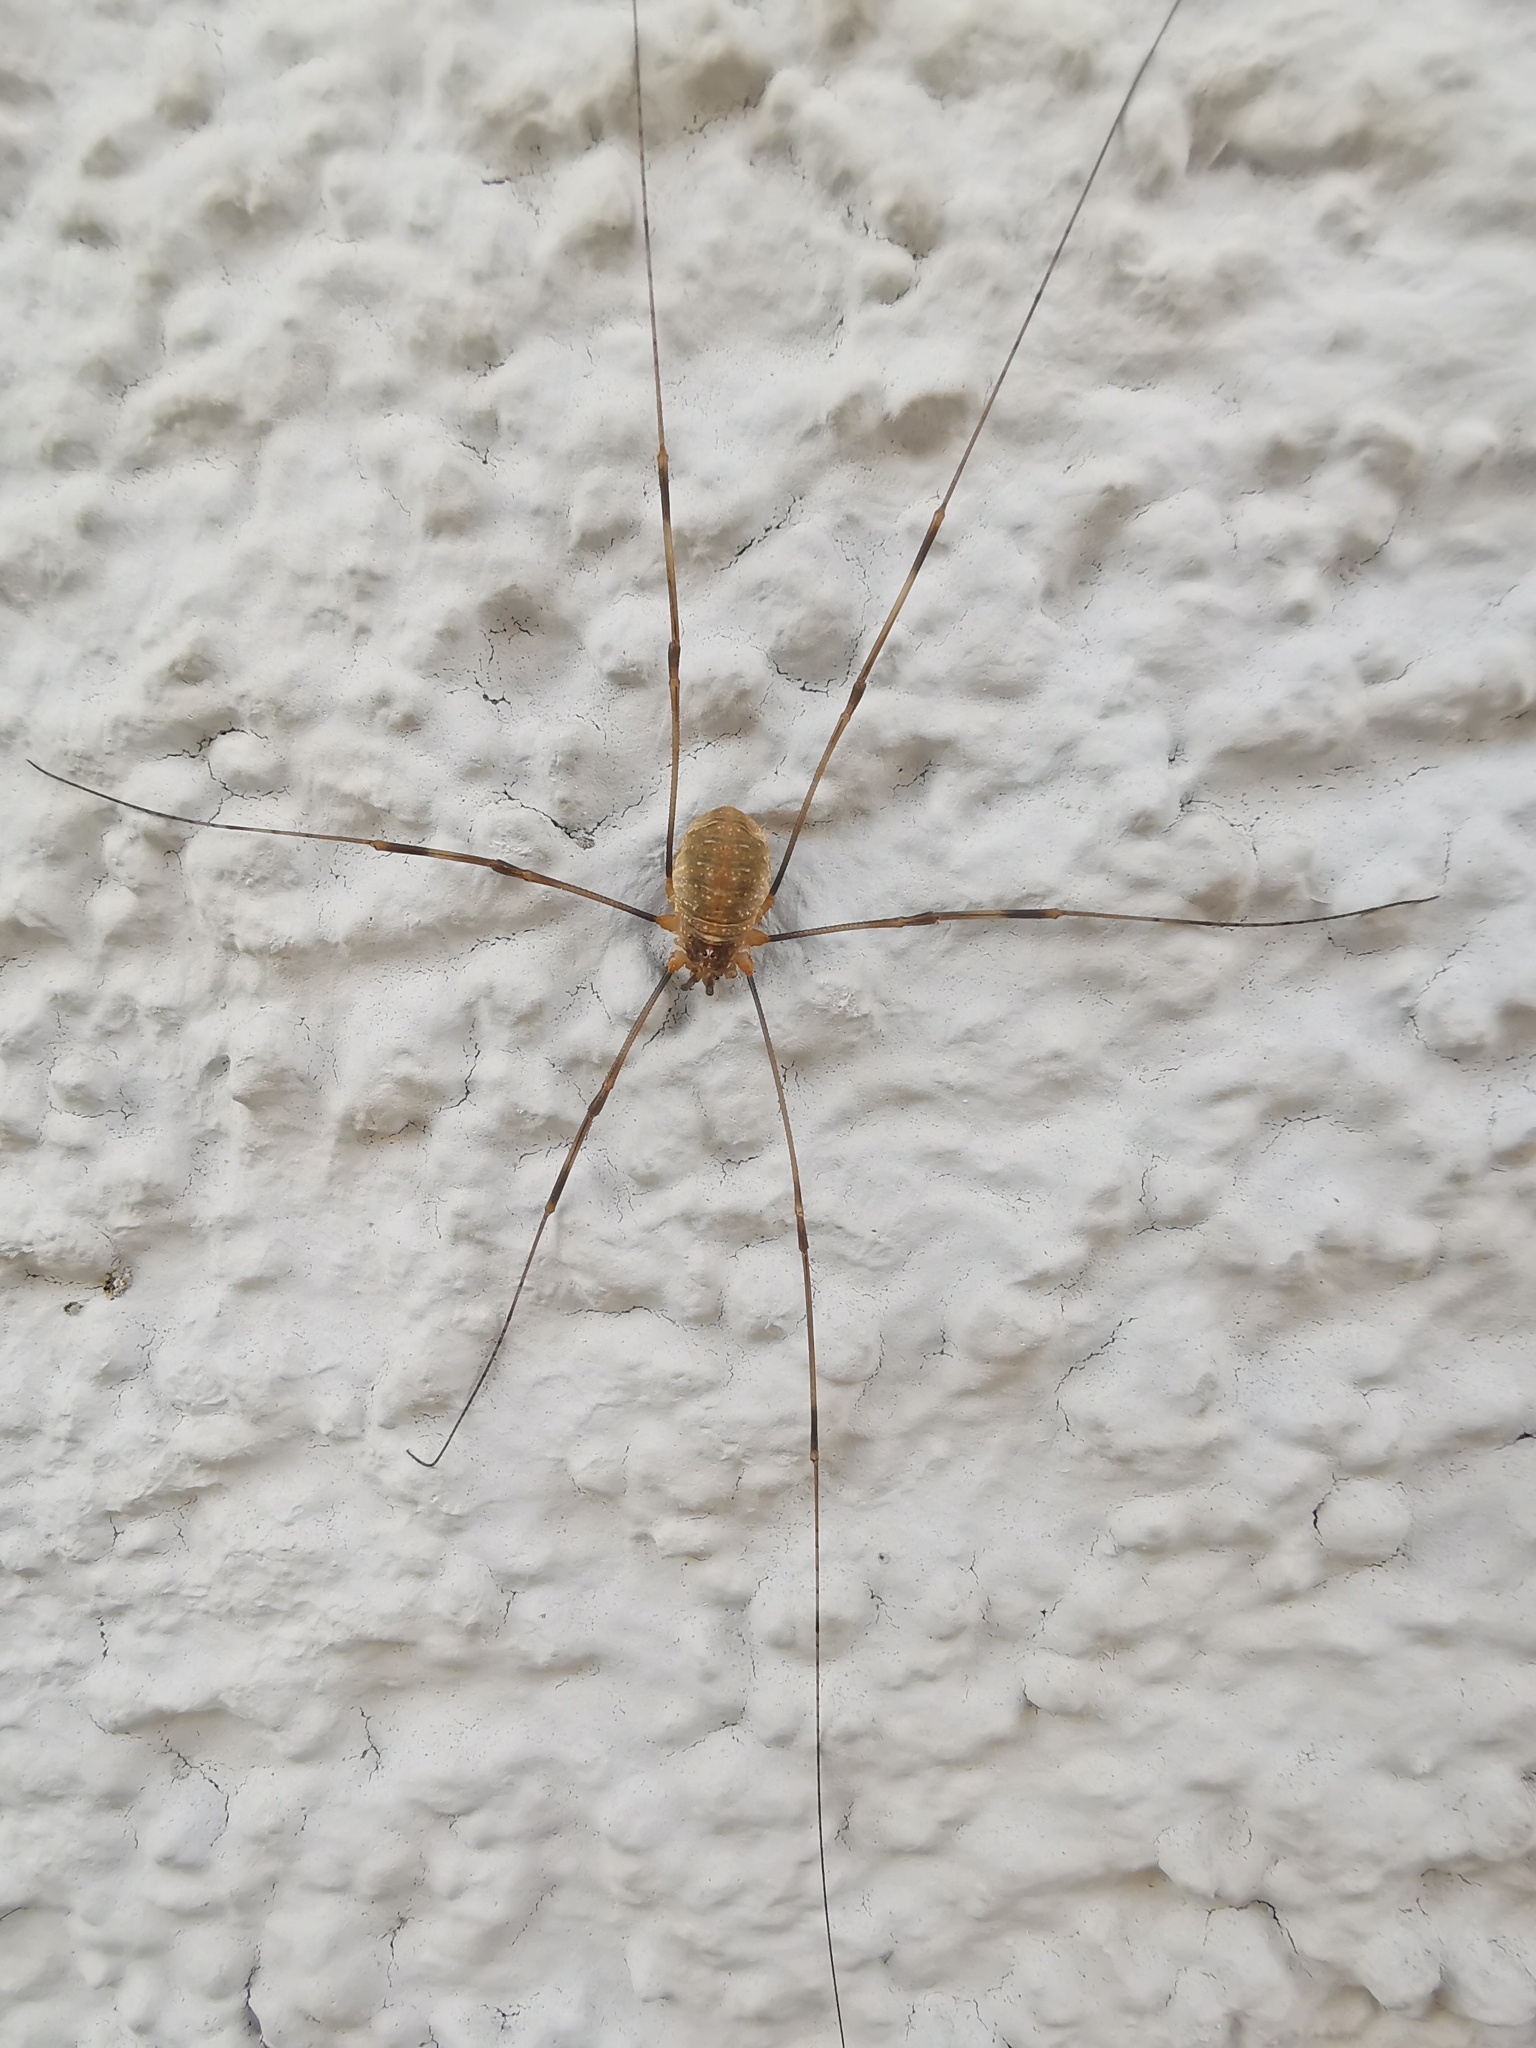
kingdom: Animalia
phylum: Arthropoda
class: Arachnida
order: Opiliones
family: Phalangiidae
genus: Opilio
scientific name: Opilio canestrinii
